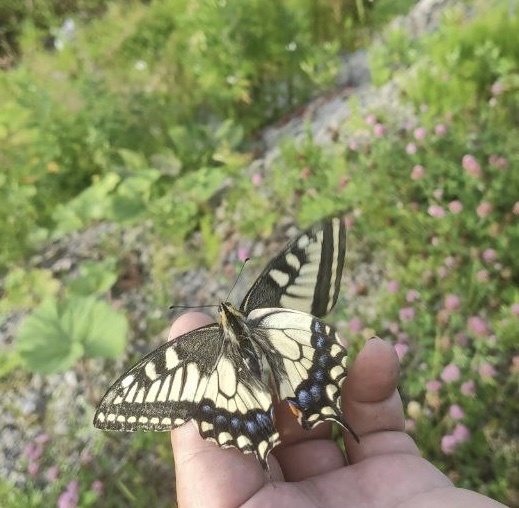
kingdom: Animalia
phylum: Arthropoda
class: Insecta
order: Lepidoptera
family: Papilionidae
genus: Papilio
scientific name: Papilio machaon
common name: Swallowtail
